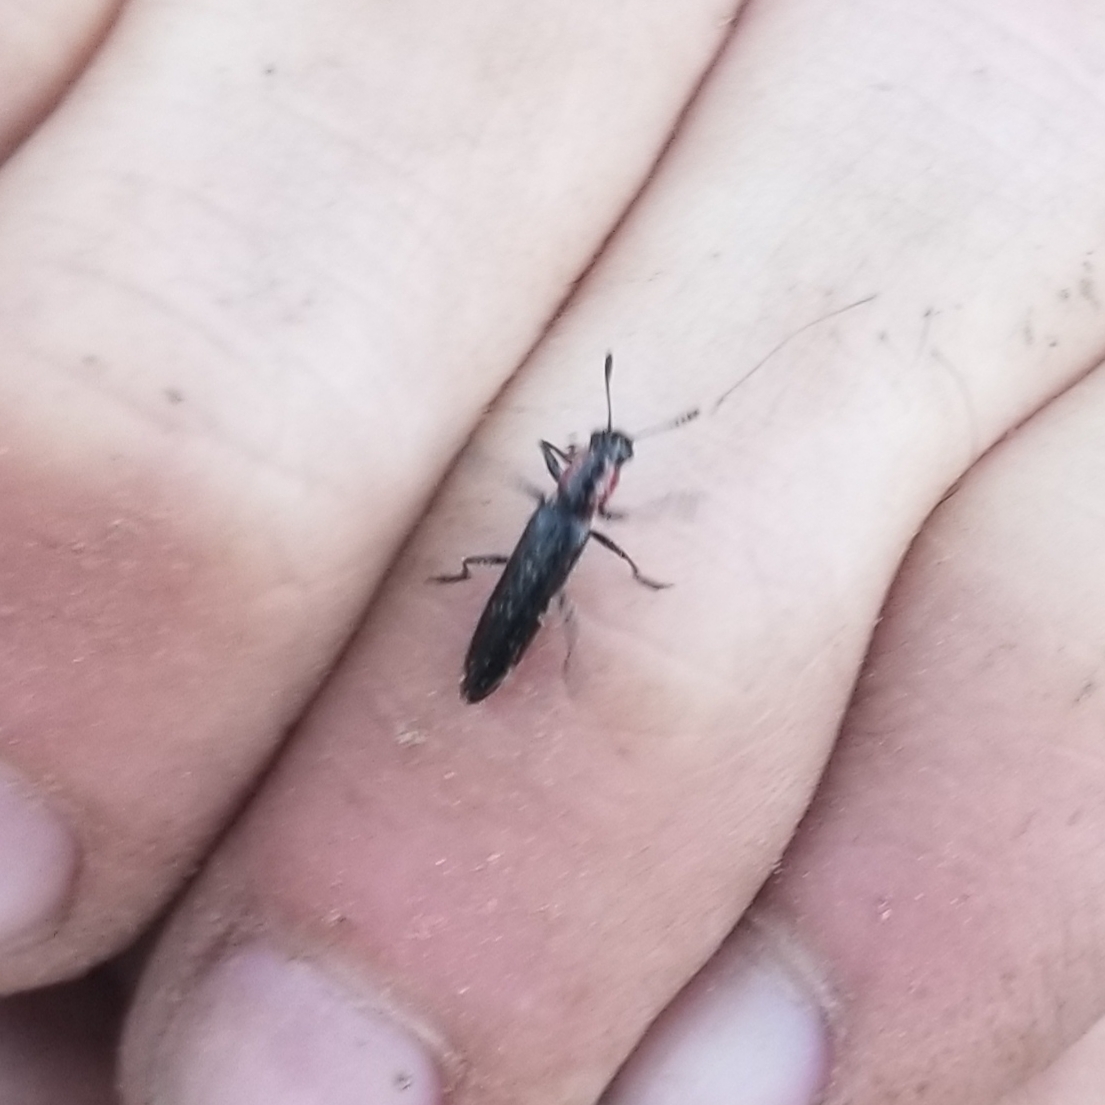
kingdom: Animalia
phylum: Arthropoda
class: Insecta
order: Coleoptera
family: Erotylidae
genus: Acropteroxys
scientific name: Acropteroxys gracilis
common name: Slender lizard beetle
